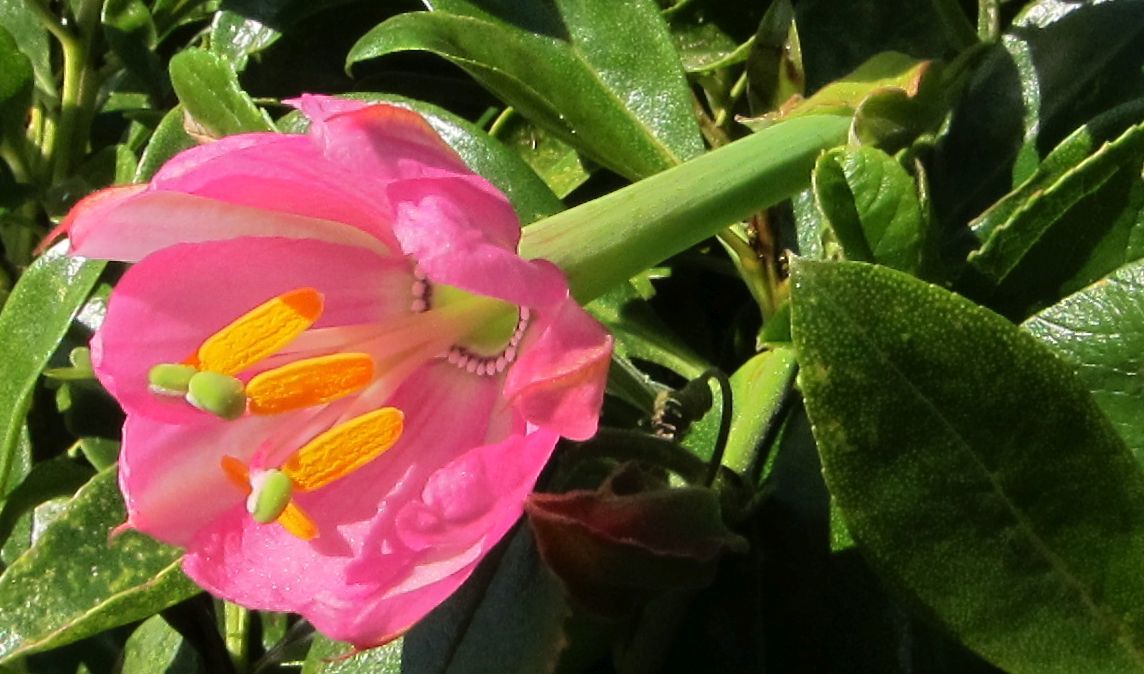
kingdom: Plantae
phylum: Tracheophyta
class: Magnoliopsida
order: Malpighiales
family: Passifloraceae
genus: Passiflora
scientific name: Passiflora tripartita
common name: Banana poka
